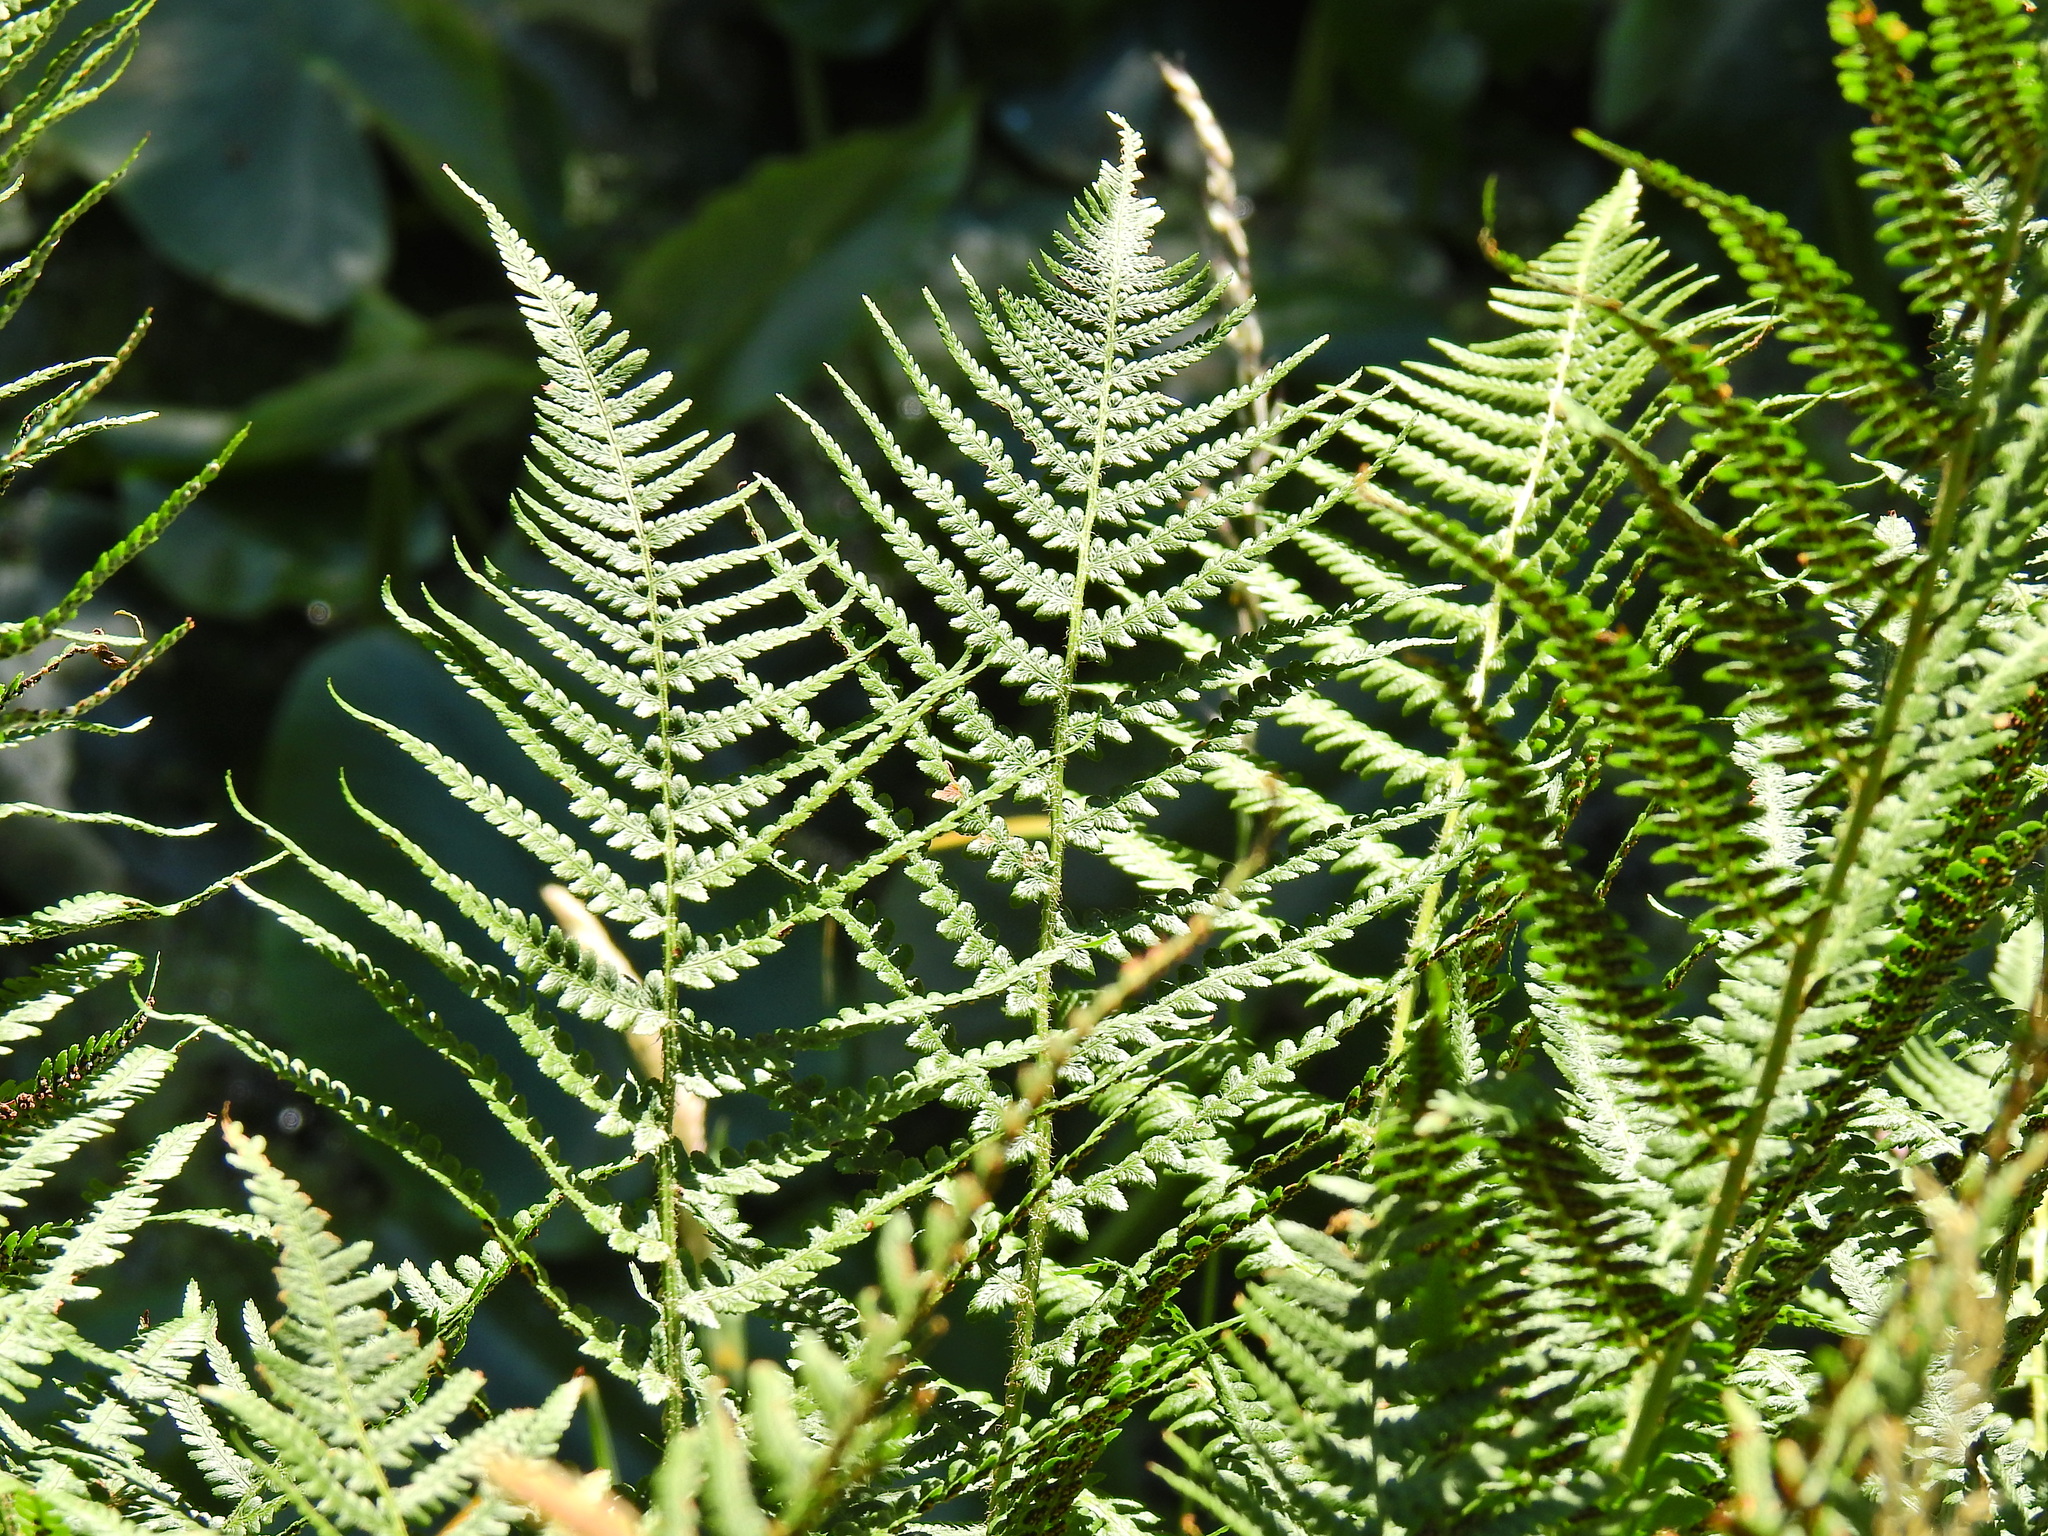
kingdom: Plantae
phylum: Tracheophyta
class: Polypodiopsida
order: Polypodiales
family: Dryopteridaceae
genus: Dryopteris
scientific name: Dryopteris filix-mas
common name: Male fern
